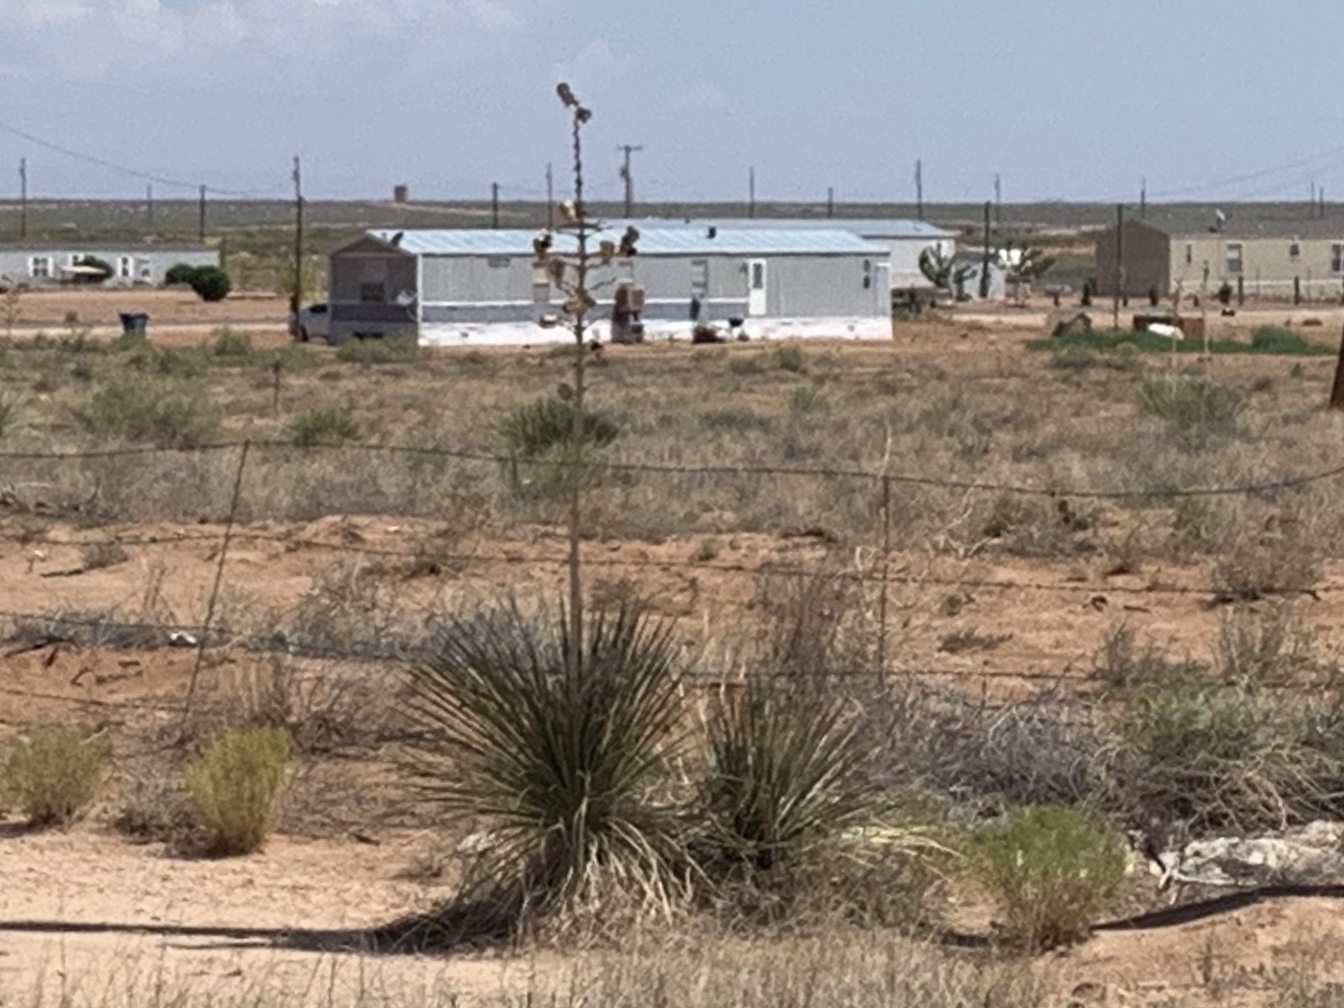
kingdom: Plantae
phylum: Tracheophyta
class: Liliopsida
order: Asparagales
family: Asparagaceae
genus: Yucca
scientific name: Yucca elata
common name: Palmella
